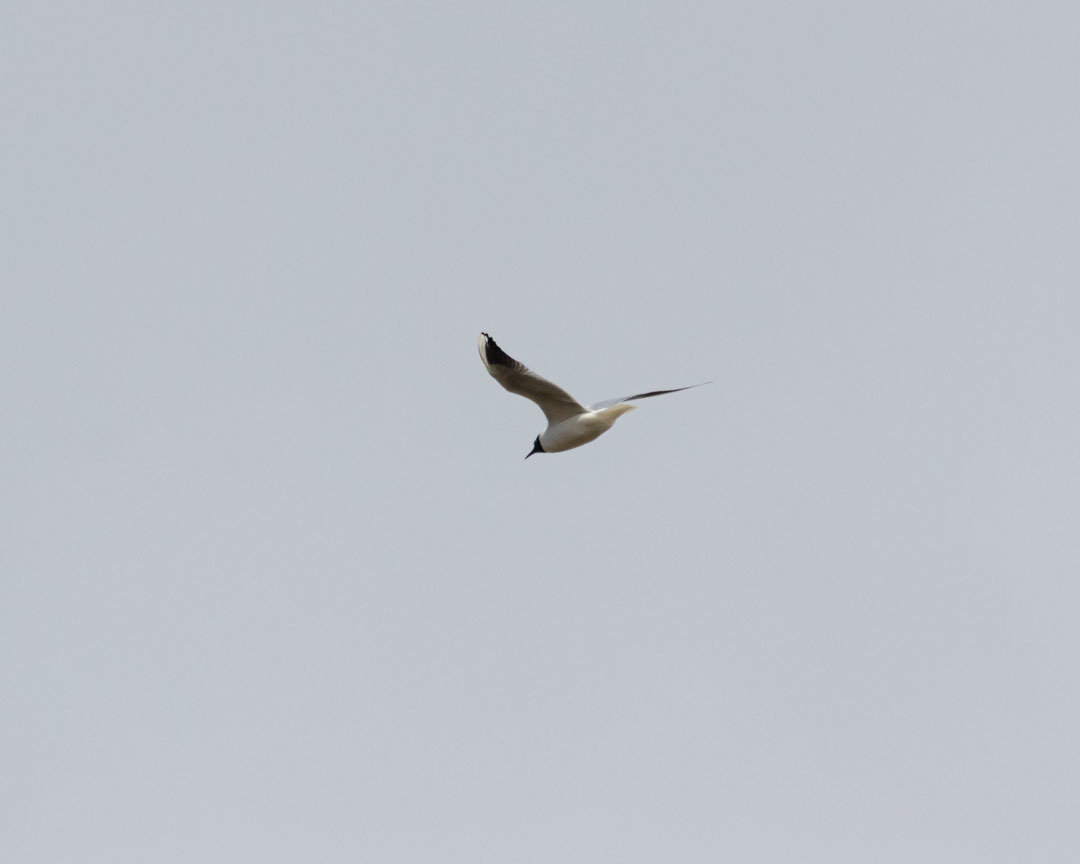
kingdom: Animalia
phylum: Chordata
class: Aves
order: Charadriiformes
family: Laridae
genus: Chroicocephalus
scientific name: Chroicocephalus ridibundus
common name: Black-headed gull
